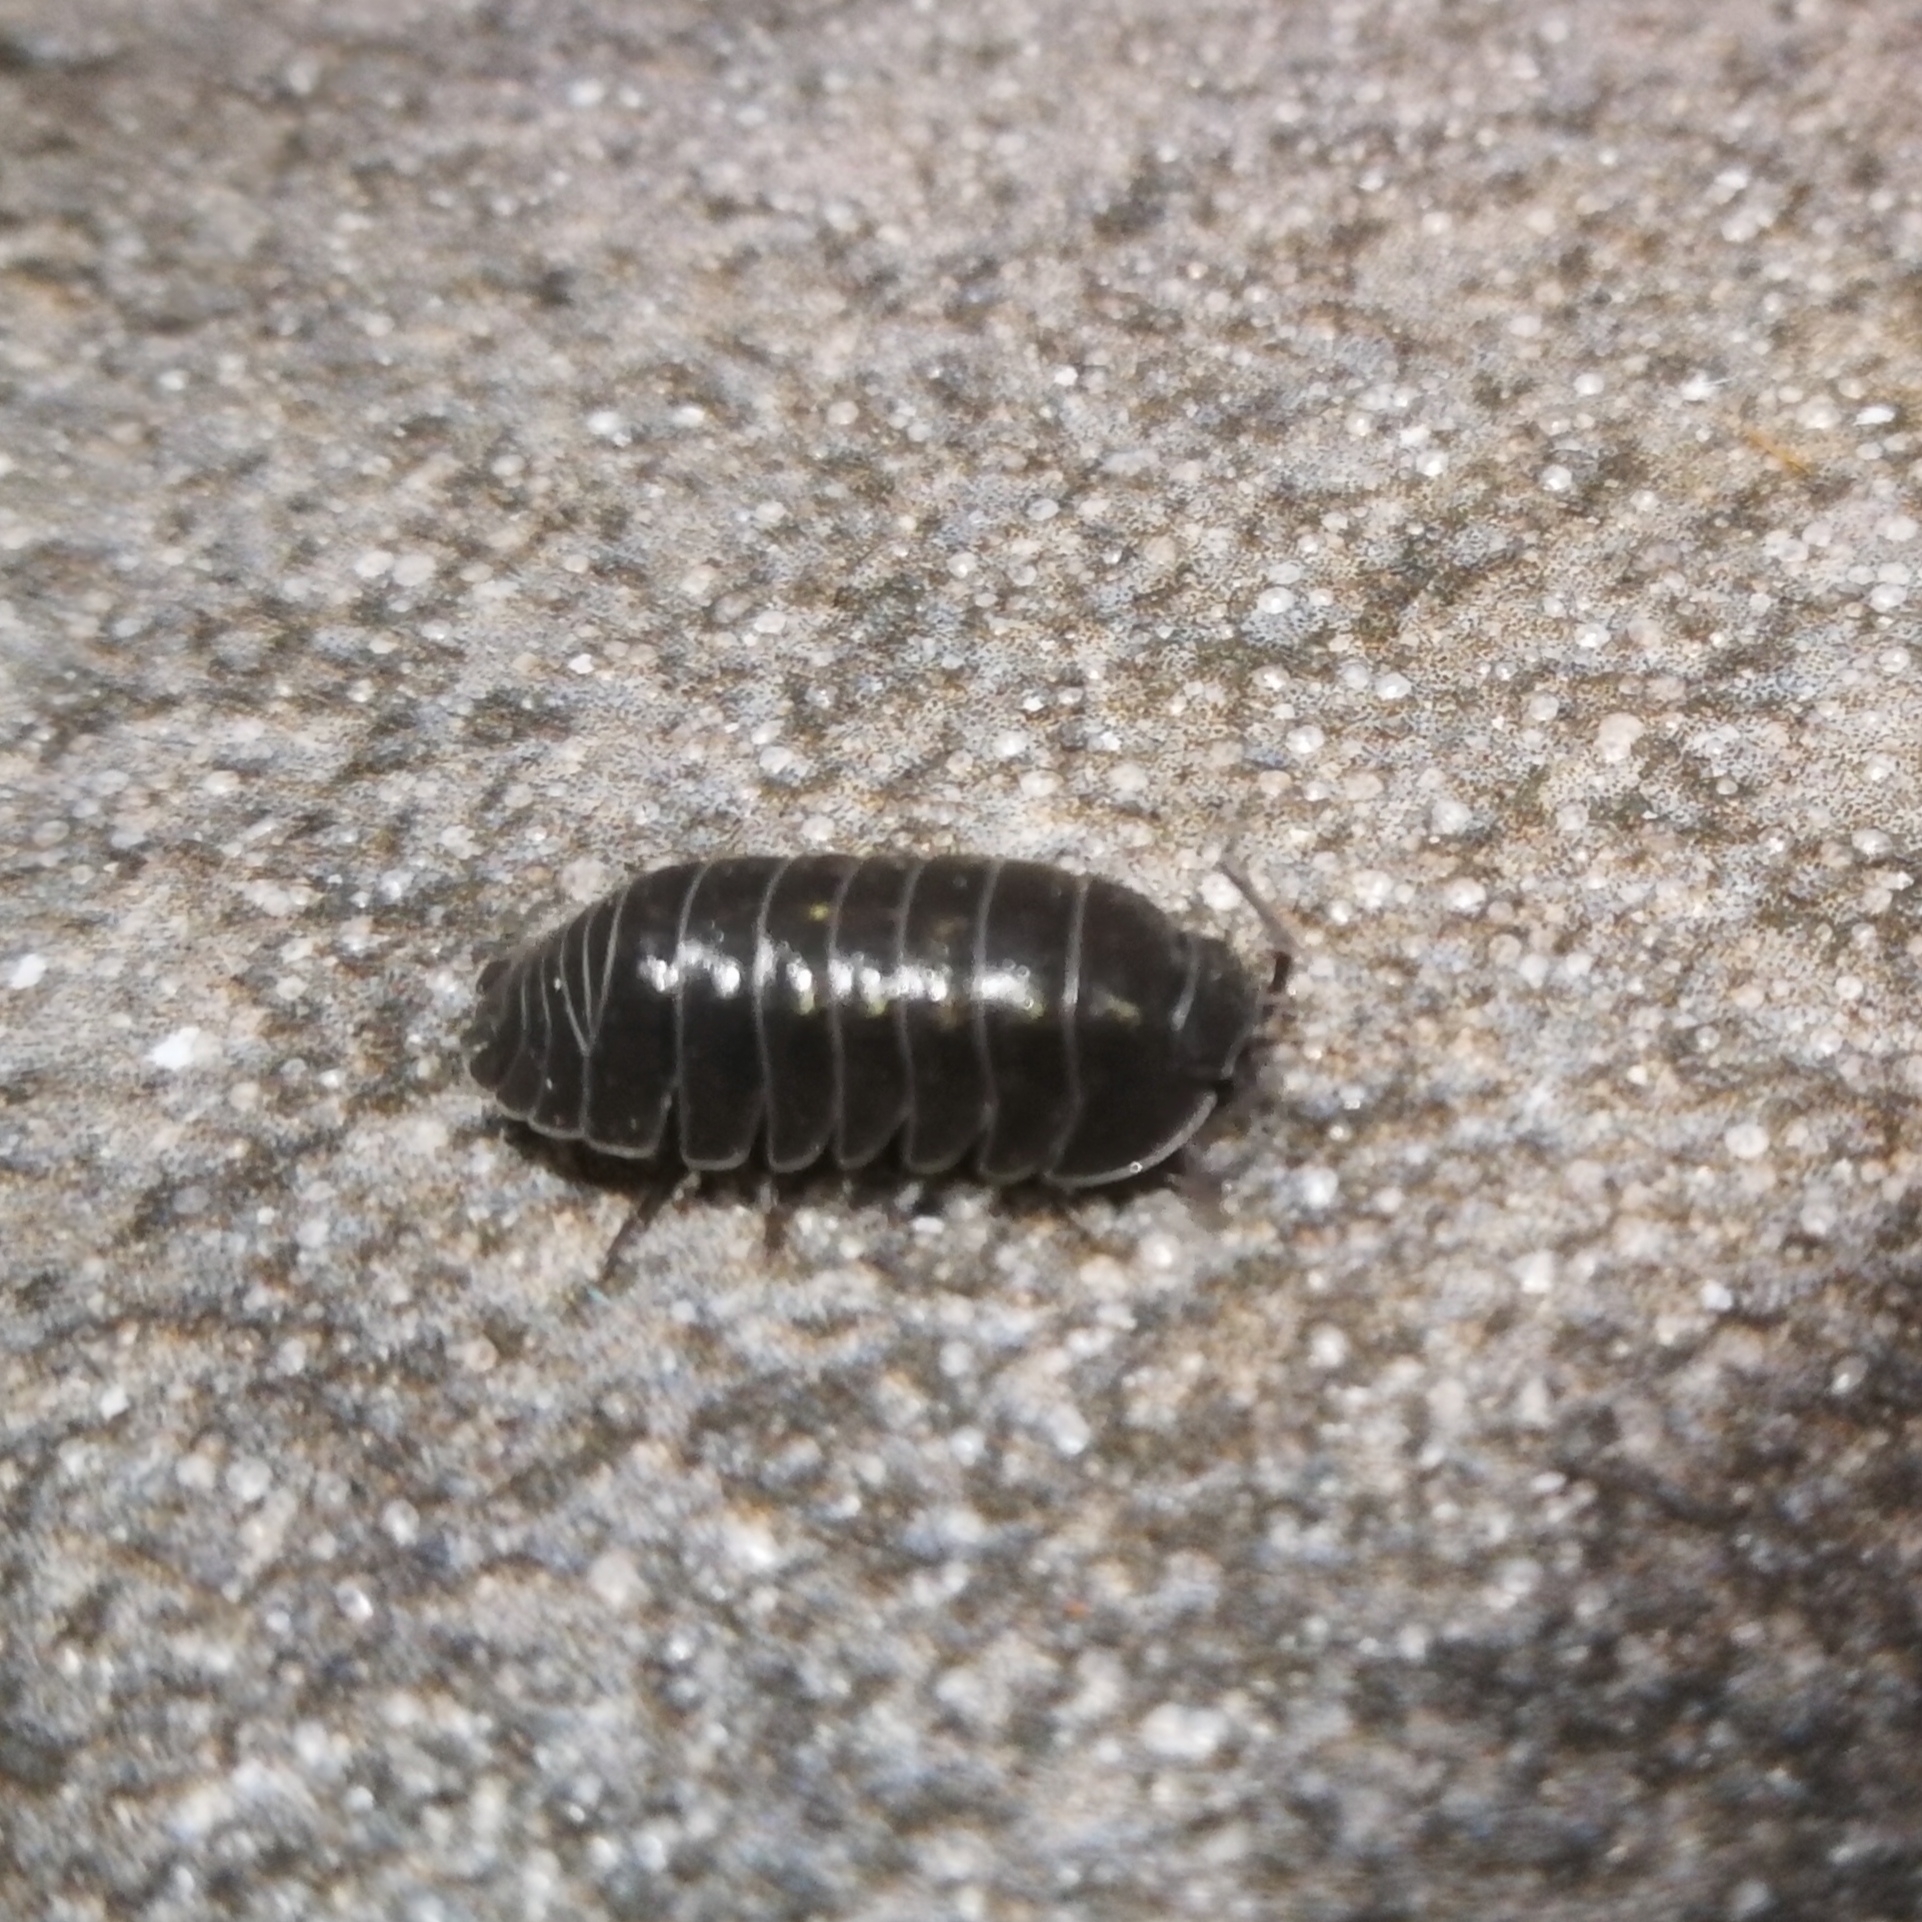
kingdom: Animalia
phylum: Arthropoda
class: Malacostraca
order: Isopoda
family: Armadillidiidae
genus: Armadillidium
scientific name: Armadillidium depressum
